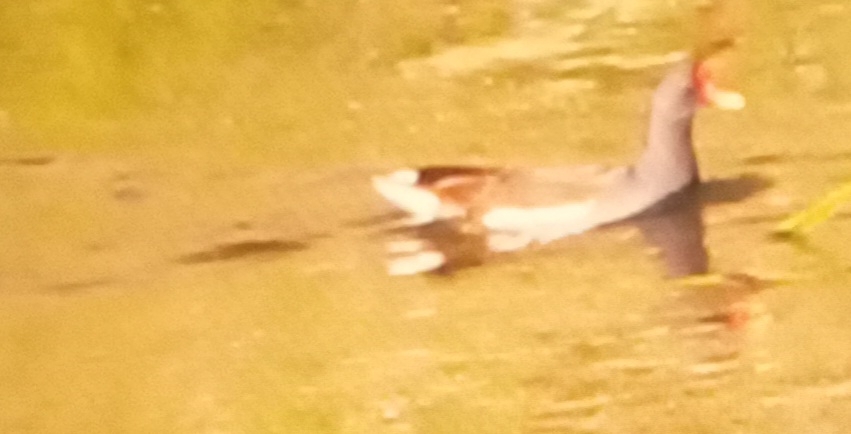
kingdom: Animalia
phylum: Chordata
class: Aves
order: Gruiformes
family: Rallidae
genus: Gallinula
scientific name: Gallinula chloropus
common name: Common moorhen
